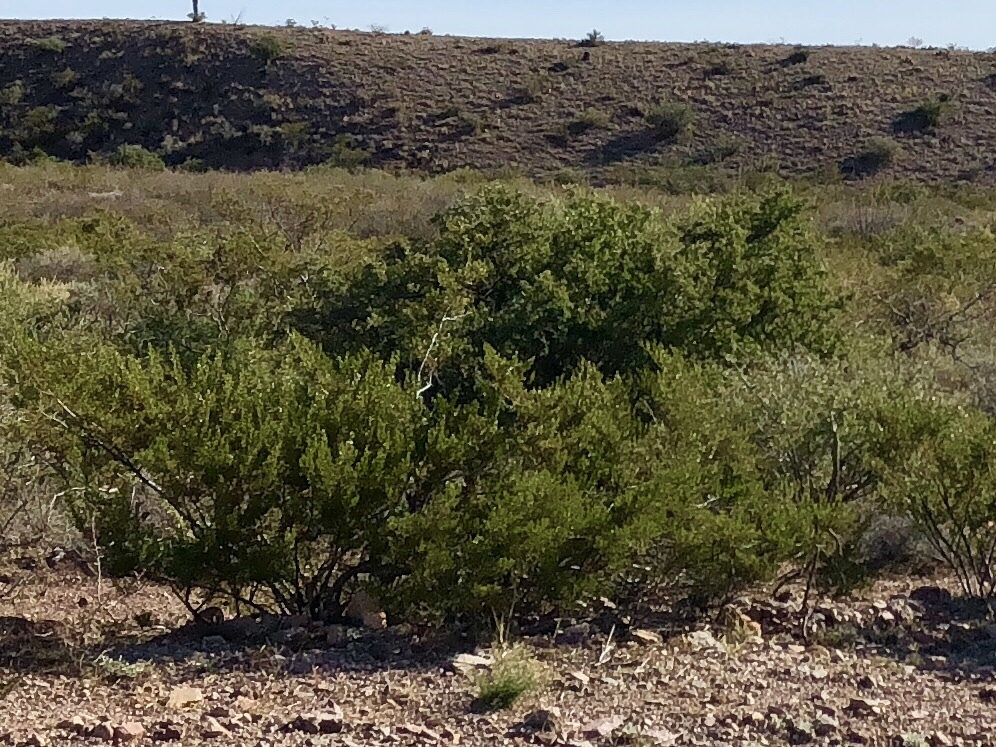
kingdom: Plantae
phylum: Tracheophyta
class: Magnoliopsida
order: Zygophyllales
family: Zygophyllaceae
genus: Larrea
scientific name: Larrea tridentata
